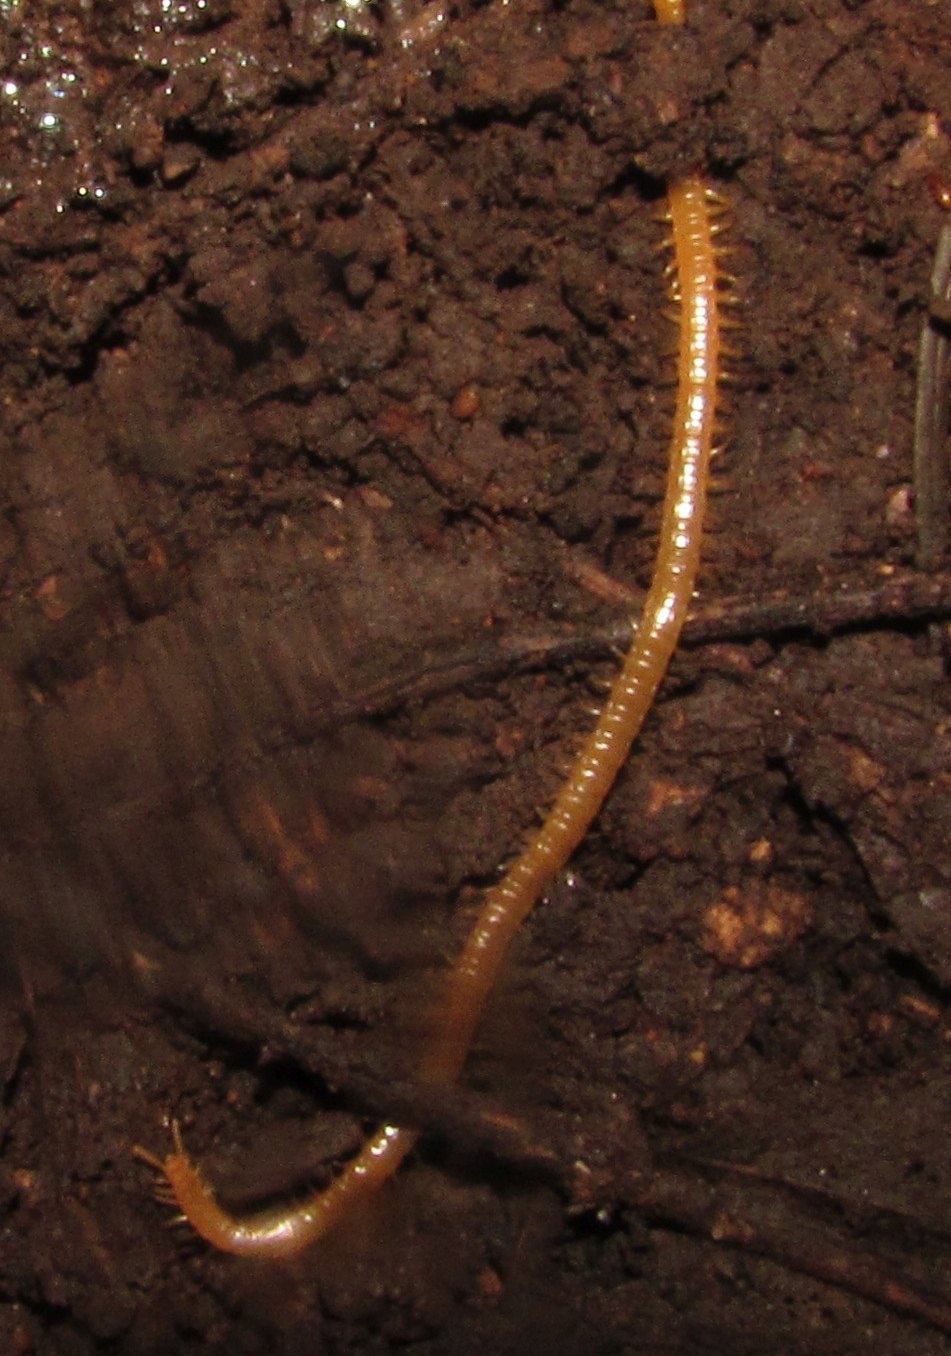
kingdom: Animalia
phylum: Arthropoda
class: Chilopoda
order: Geophilomorpha
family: Himantariidae
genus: Stigmatogaster
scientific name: Stigmatogaster subterranea
